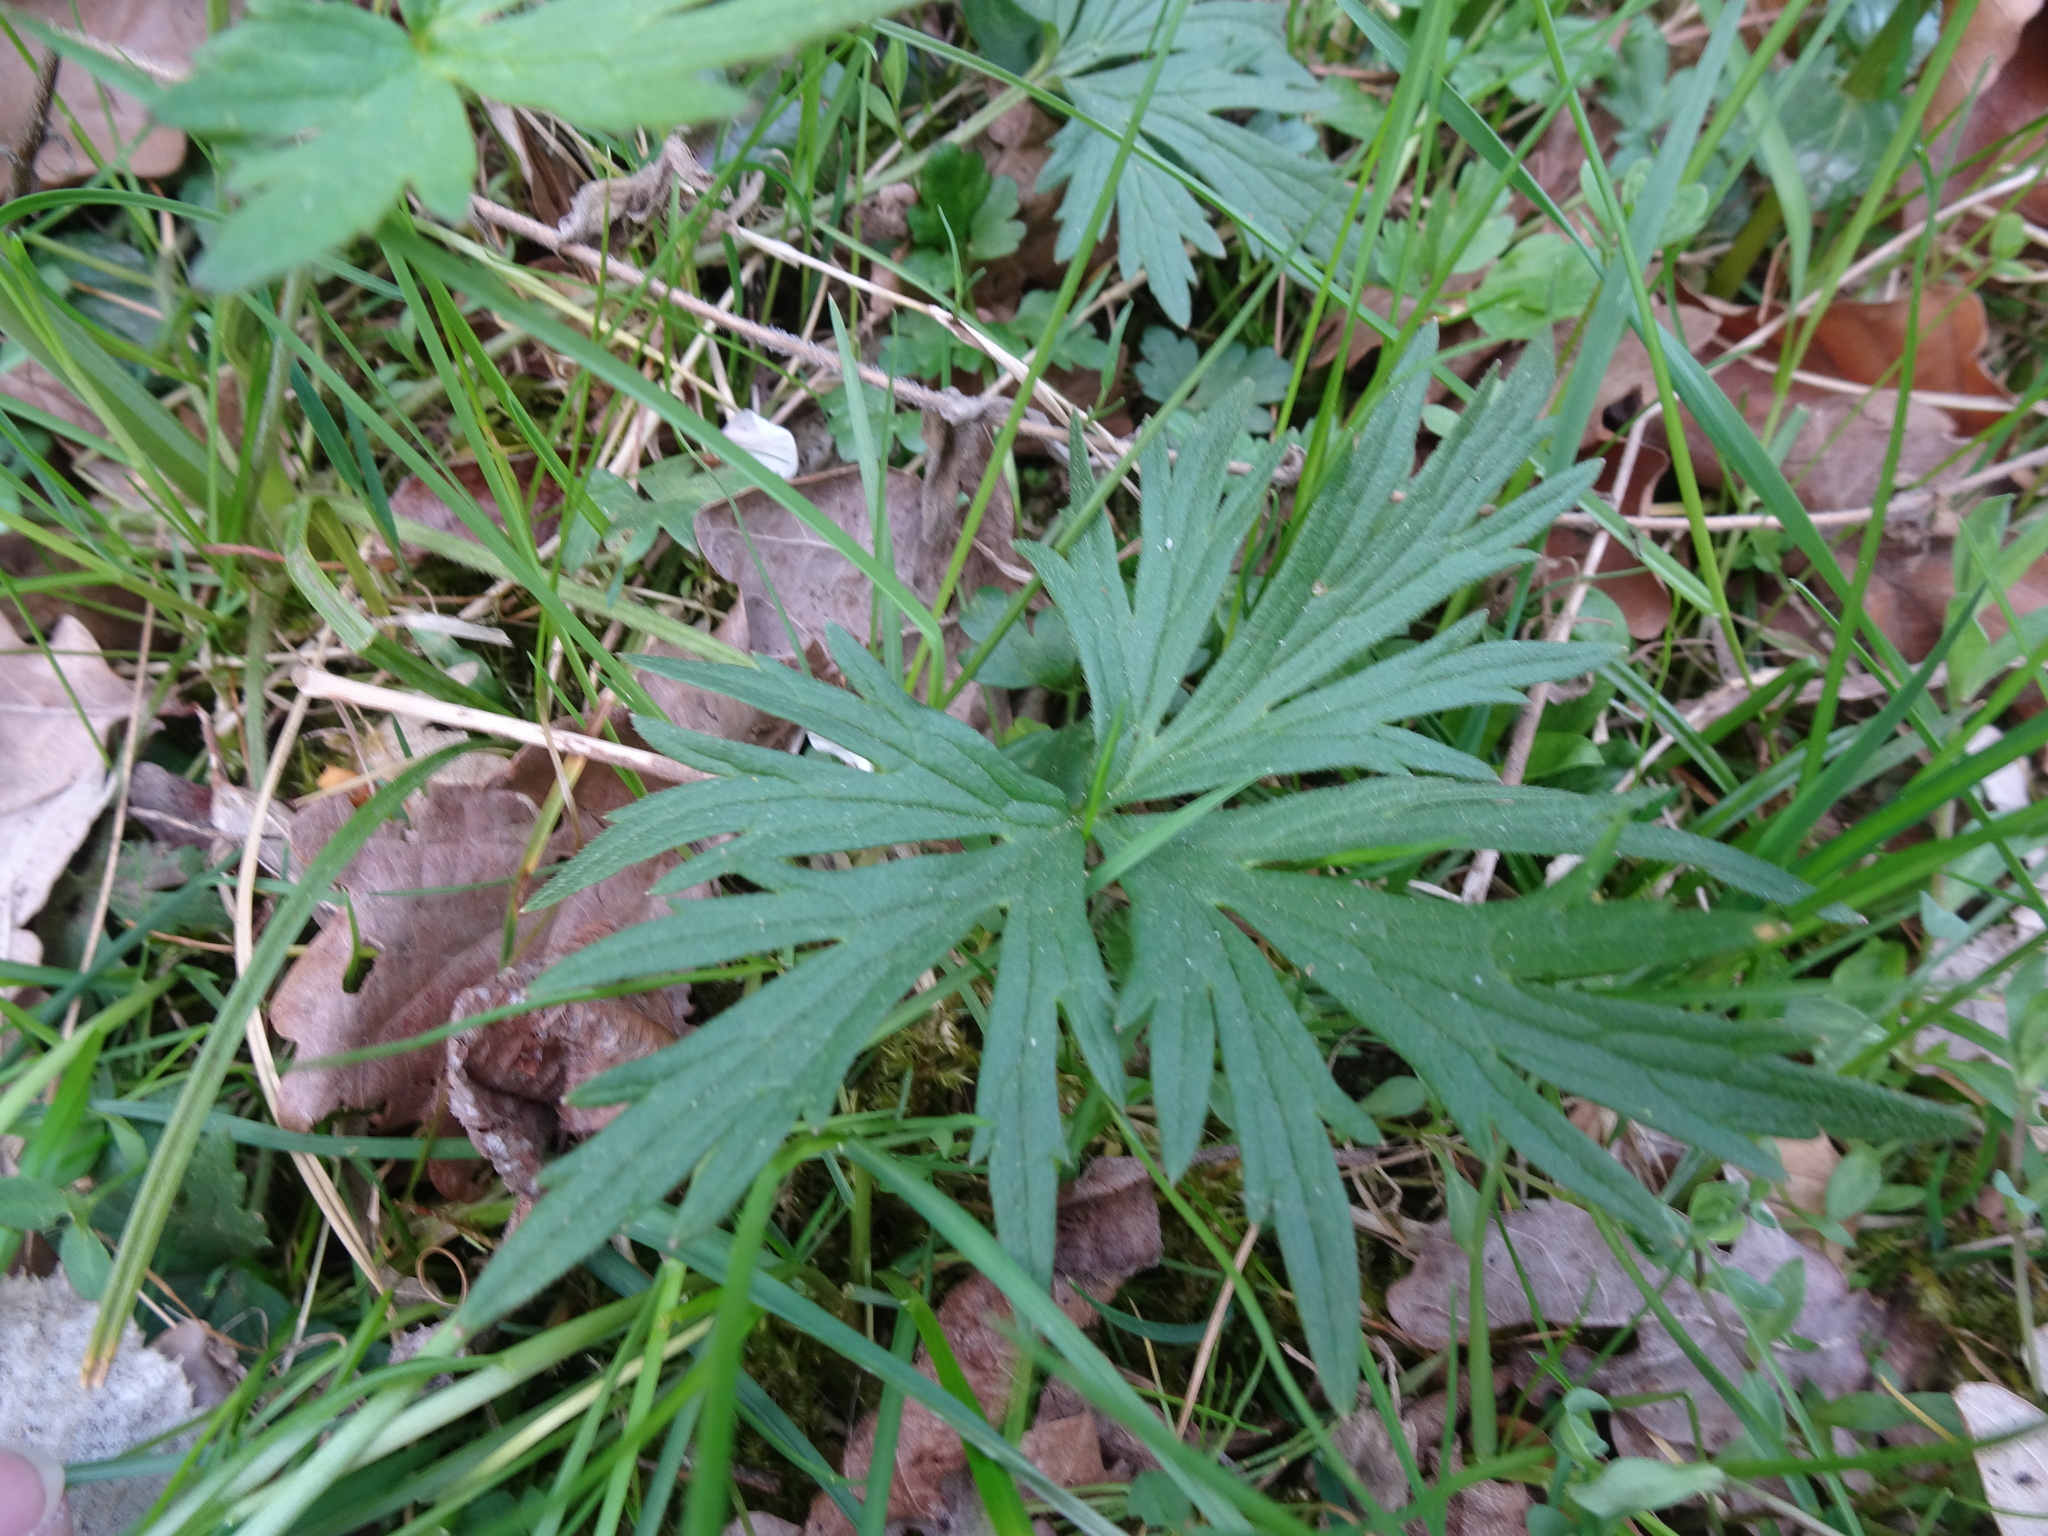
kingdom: Plantae
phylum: Tracheophyta
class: Magnoliopsida
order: Ranunculales
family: Ranunculaceae
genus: Ranunculus
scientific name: Ranunculus acris
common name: Meadow buttercup
